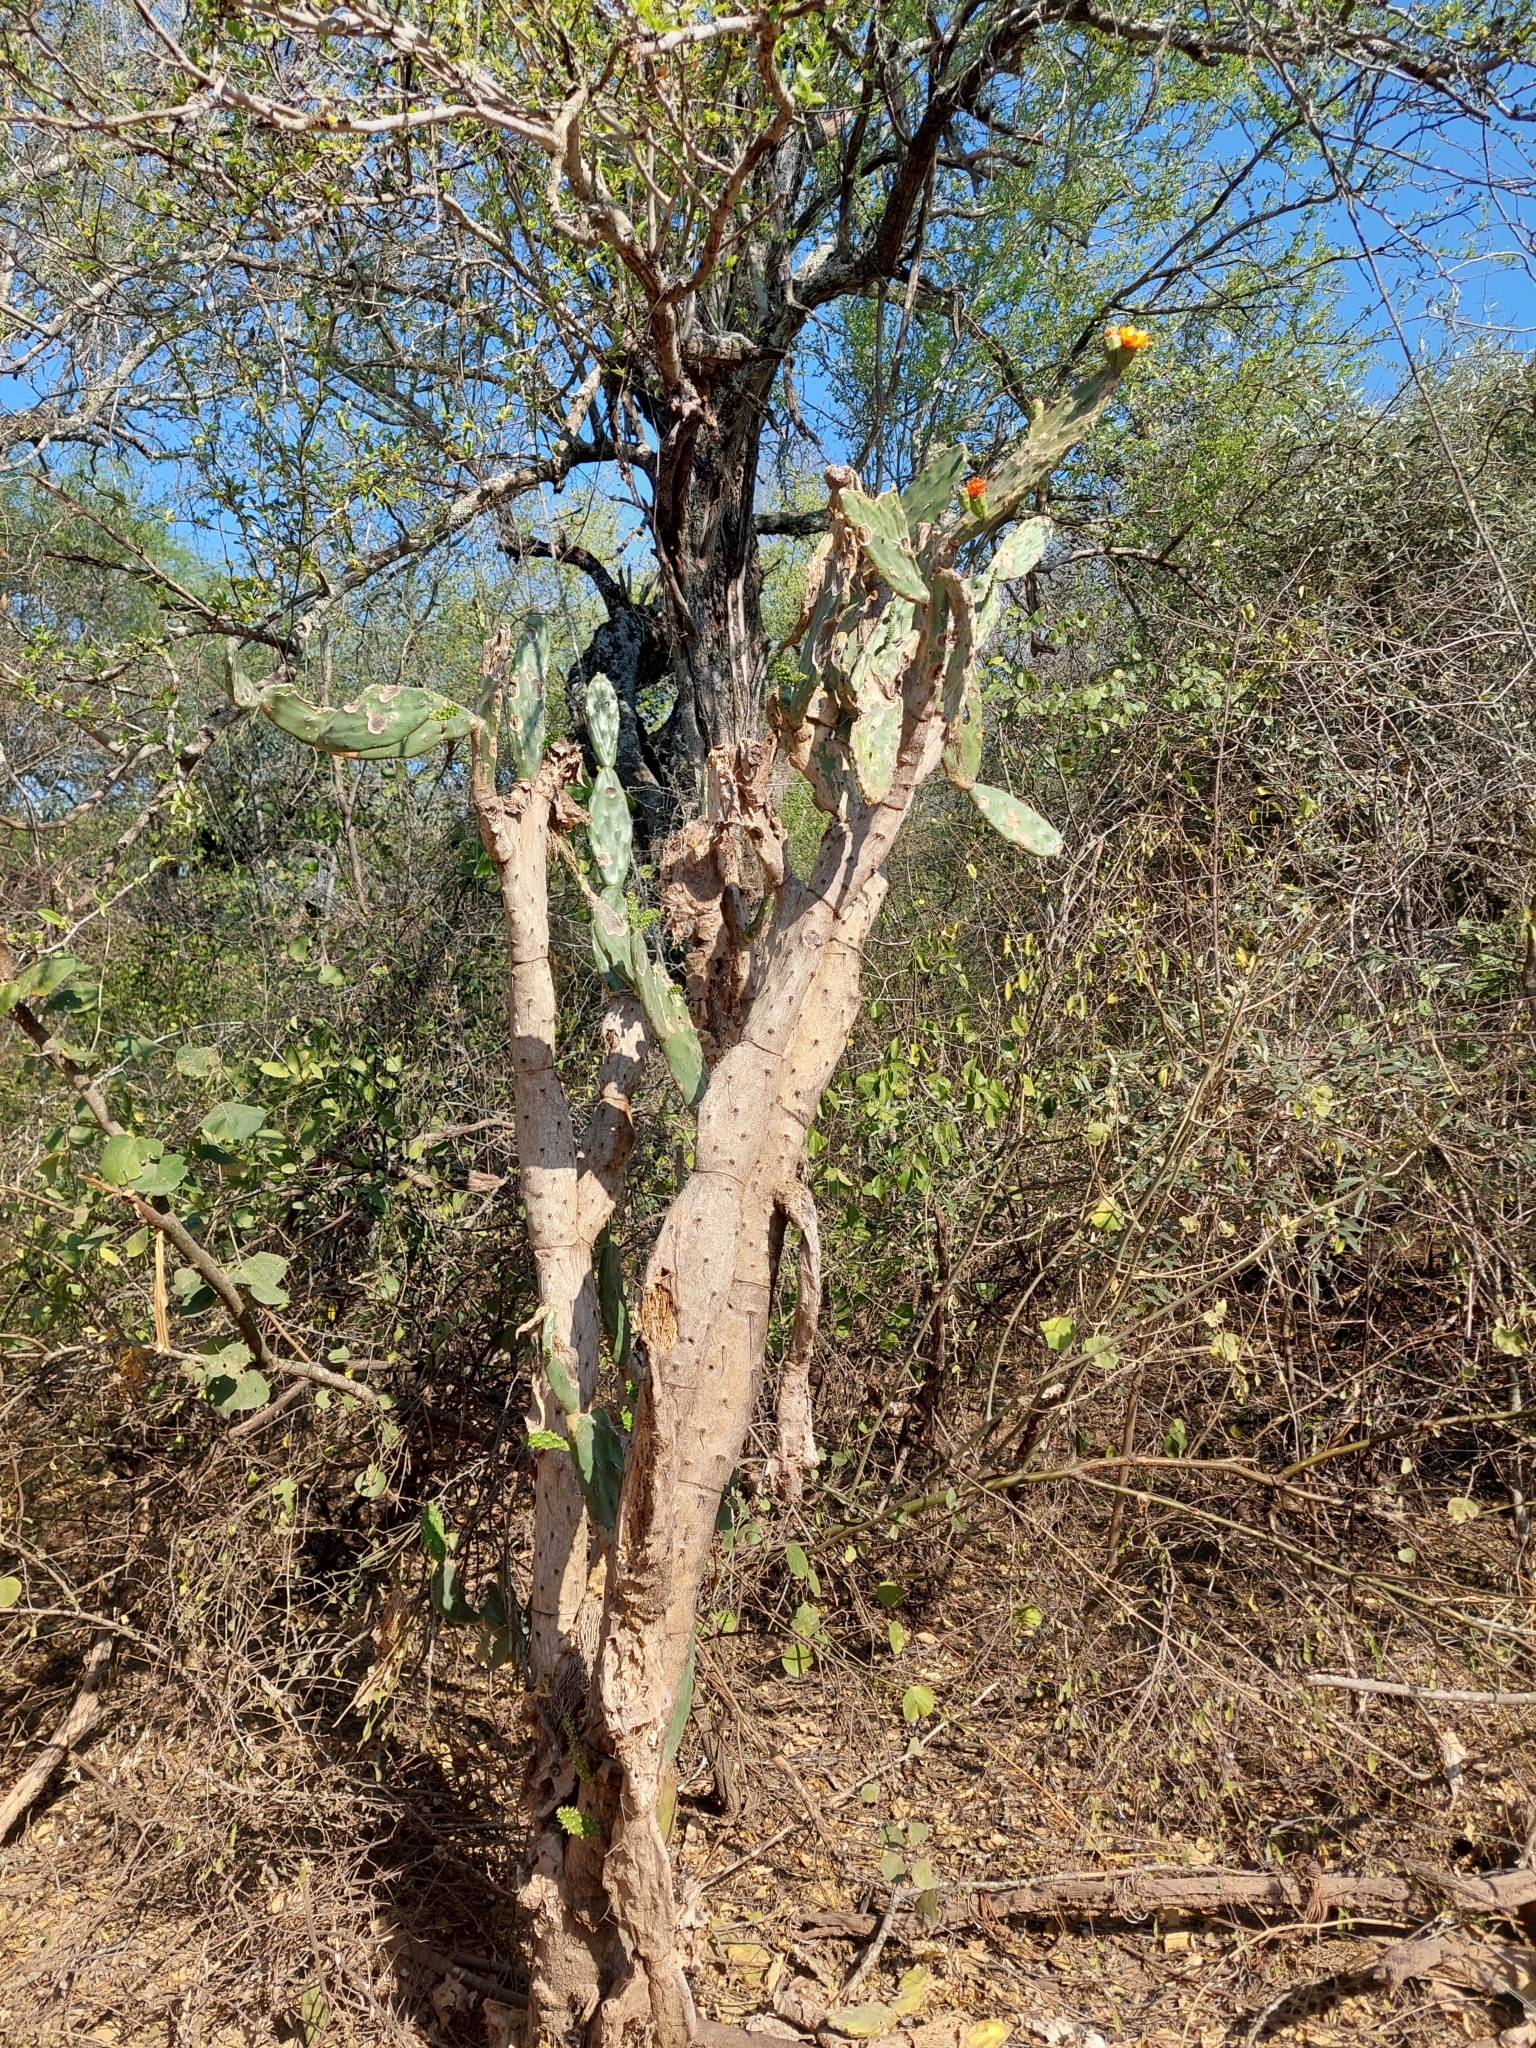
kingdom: Plantae
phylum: Tracheophyta
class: Magnoliopsida
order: Caryophyllales
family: Cactaceae
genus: Opuntia
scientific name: Opuntia elata
